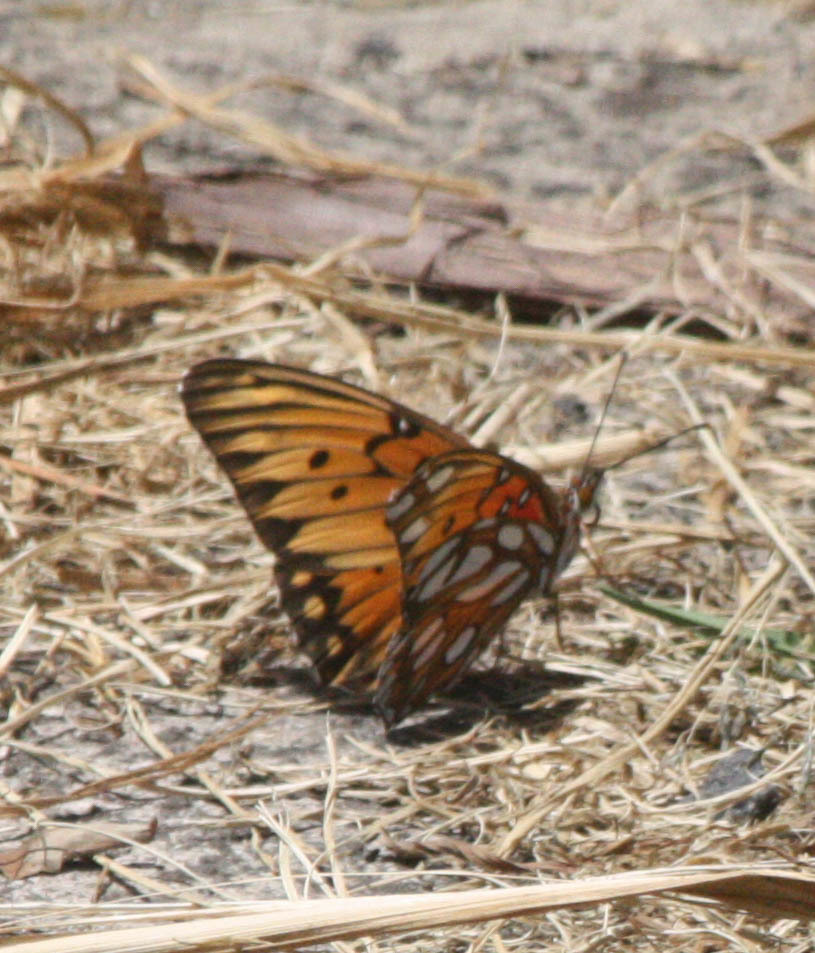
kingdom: Animalia
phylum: Arthropoda
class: Insecta
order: Lepidoptera
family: Nymphalidae
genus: Dione
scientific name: Dione vanillae
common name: Gulf fritillary
